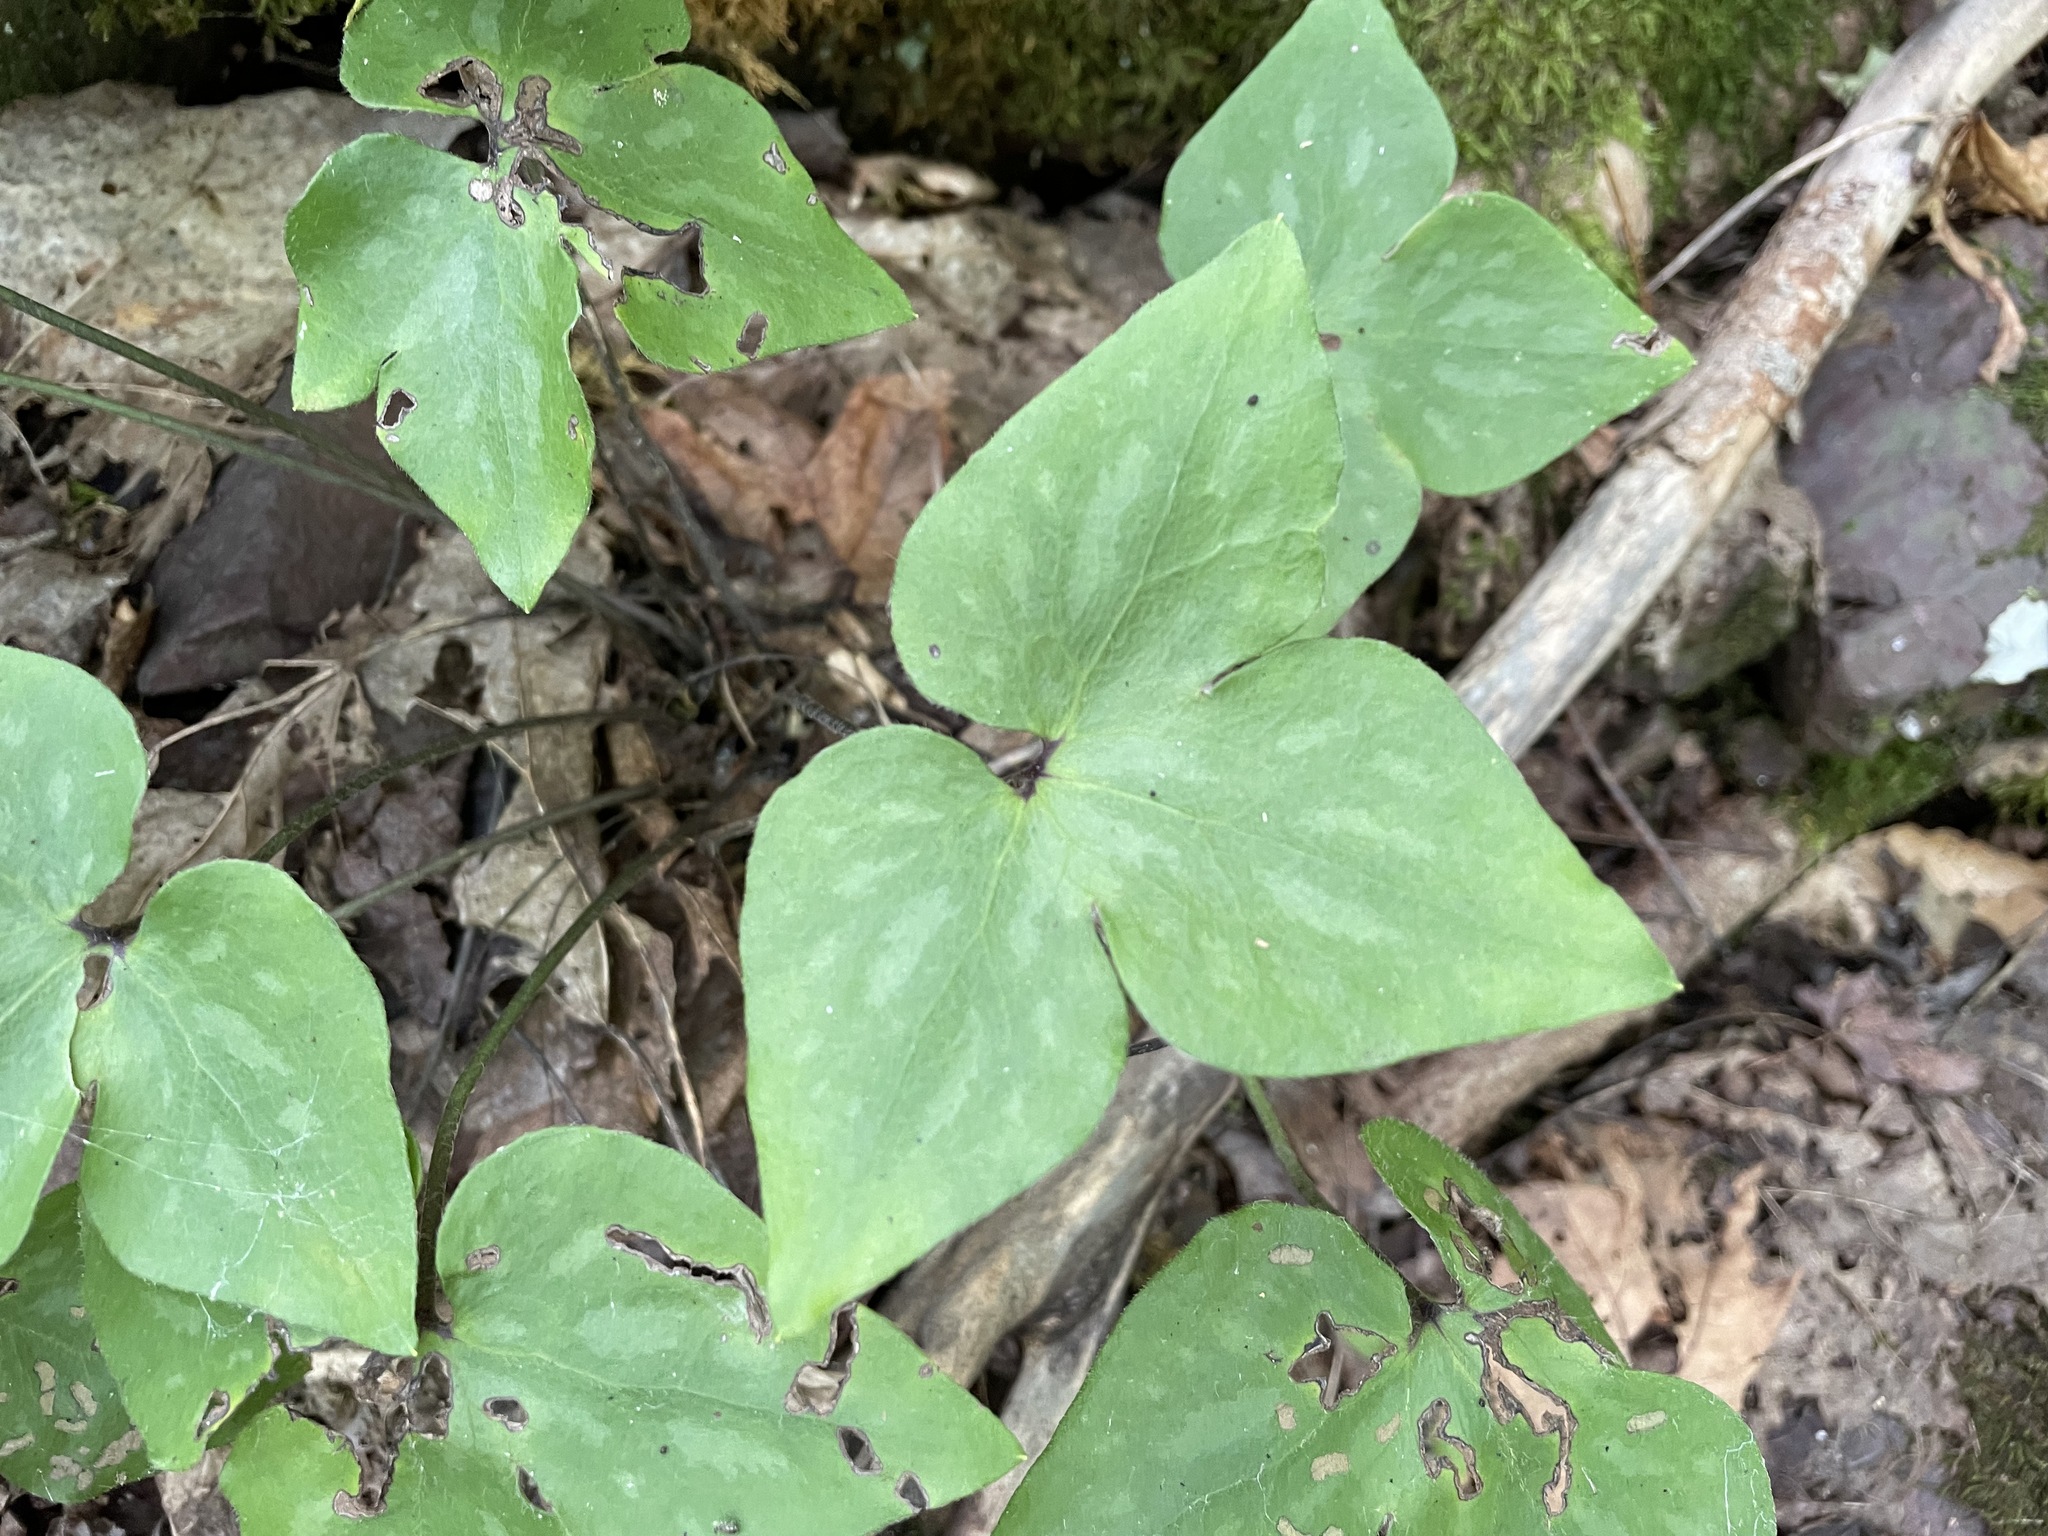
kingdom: Plantae
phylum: Tracheophyta
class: Magnoliopsida
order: Ranunculales
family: Ranunculaceae
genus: Hepatica
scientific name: Hepatica acutiloba
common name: Sharp-lobed hepatica
